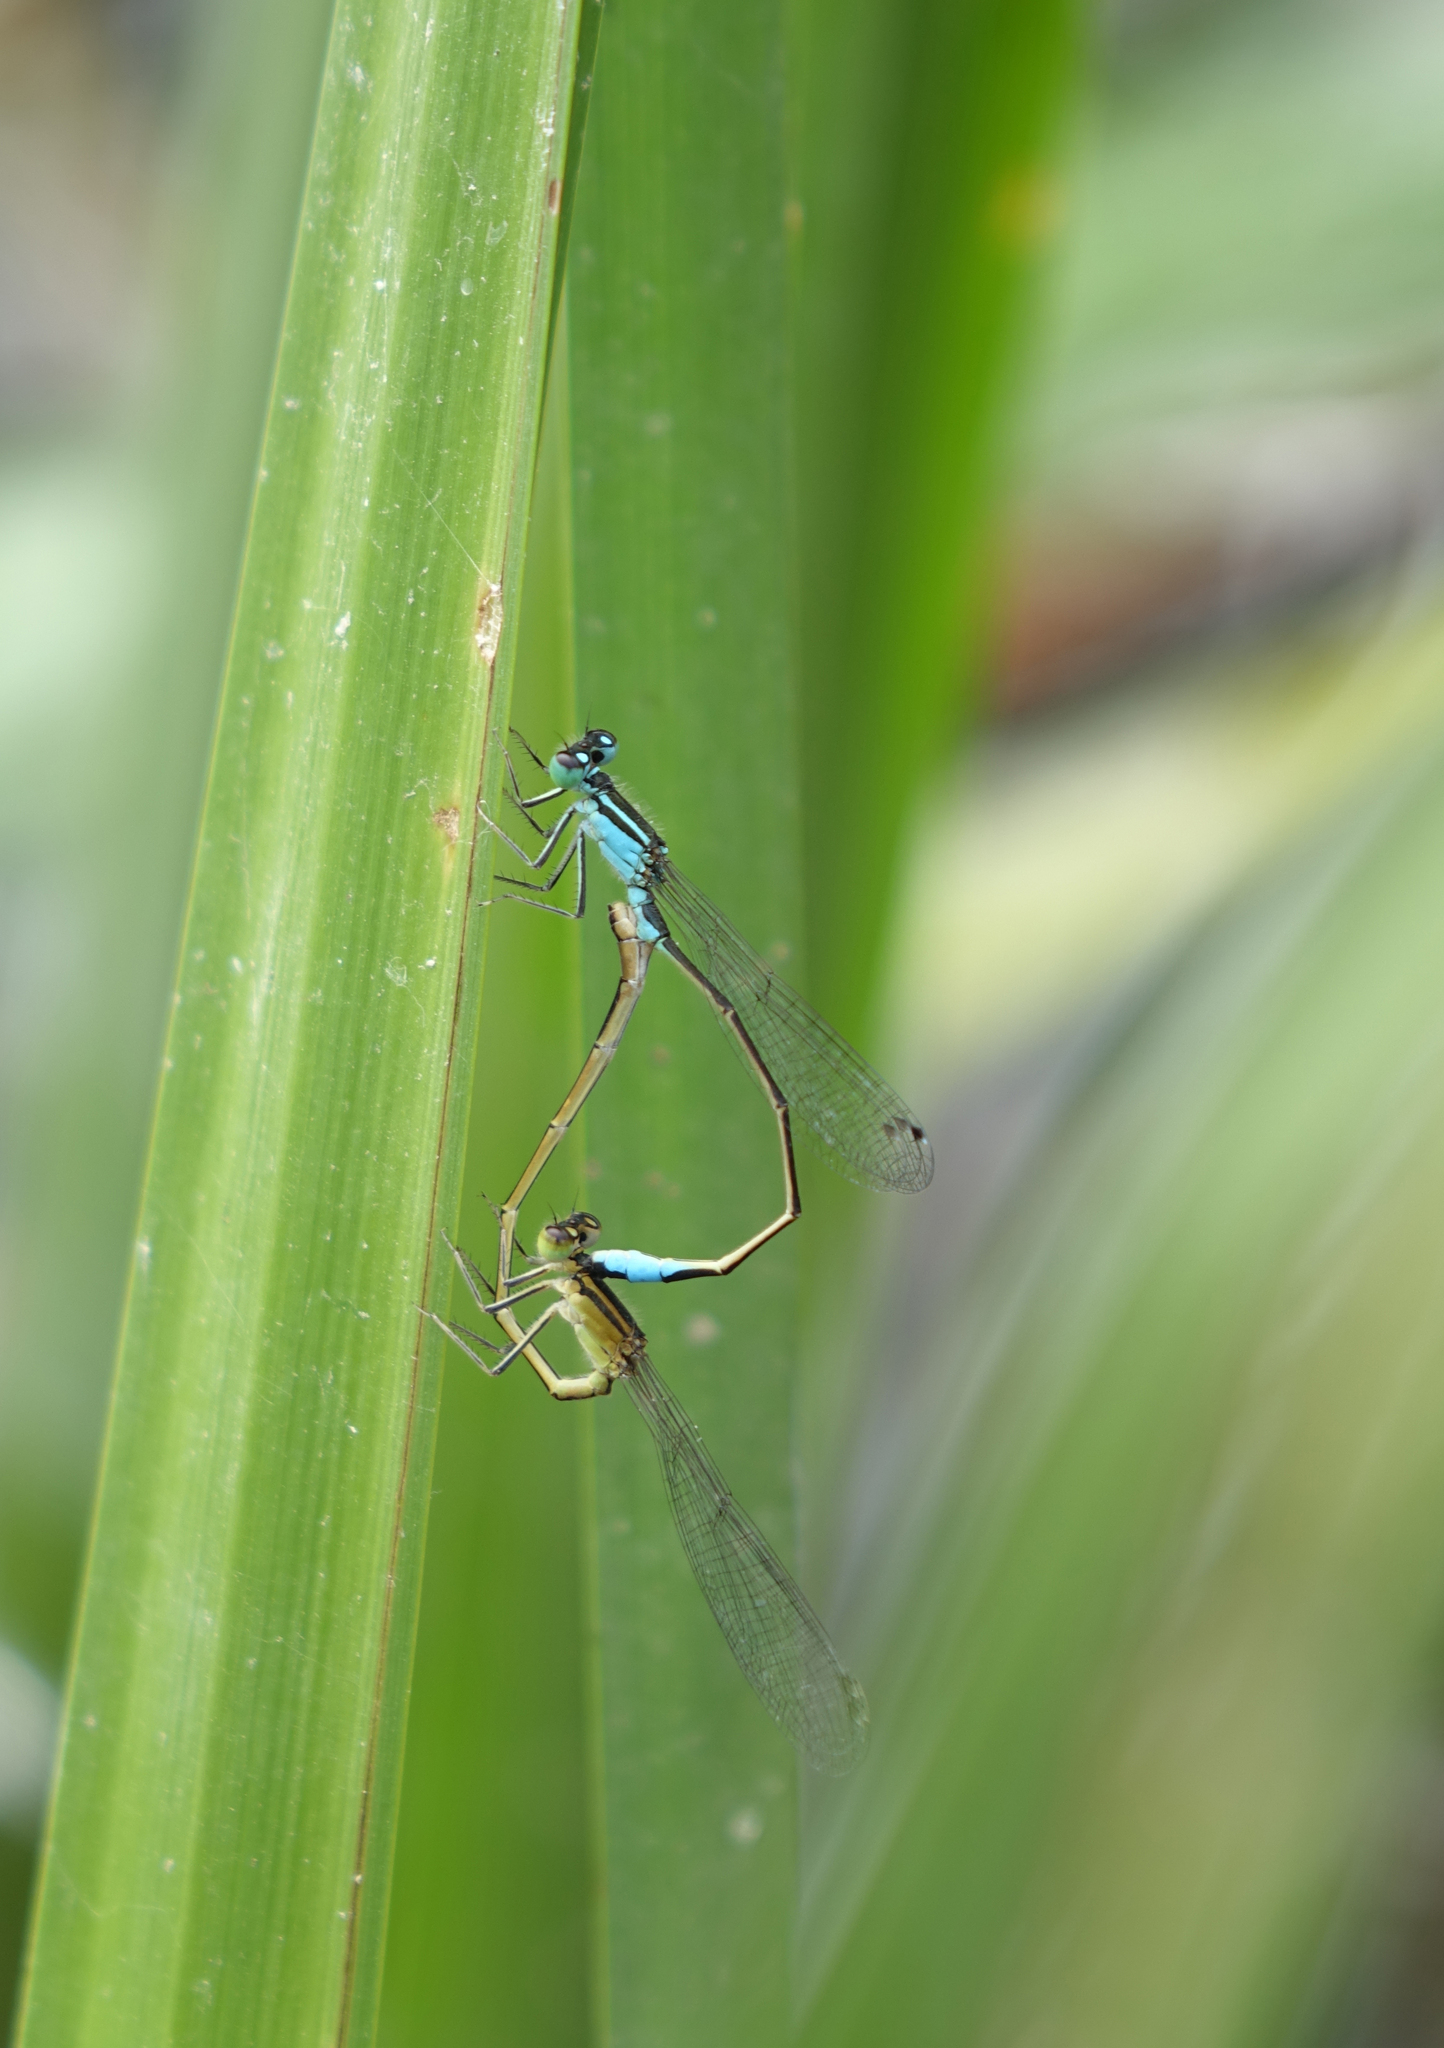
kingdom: Animalia
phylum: Arthropoda
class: Insecta
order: Odonata
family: Coenagrionidae
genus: Ischnura
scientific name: Ischnura elegans
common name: Blue-tailed damselfly
